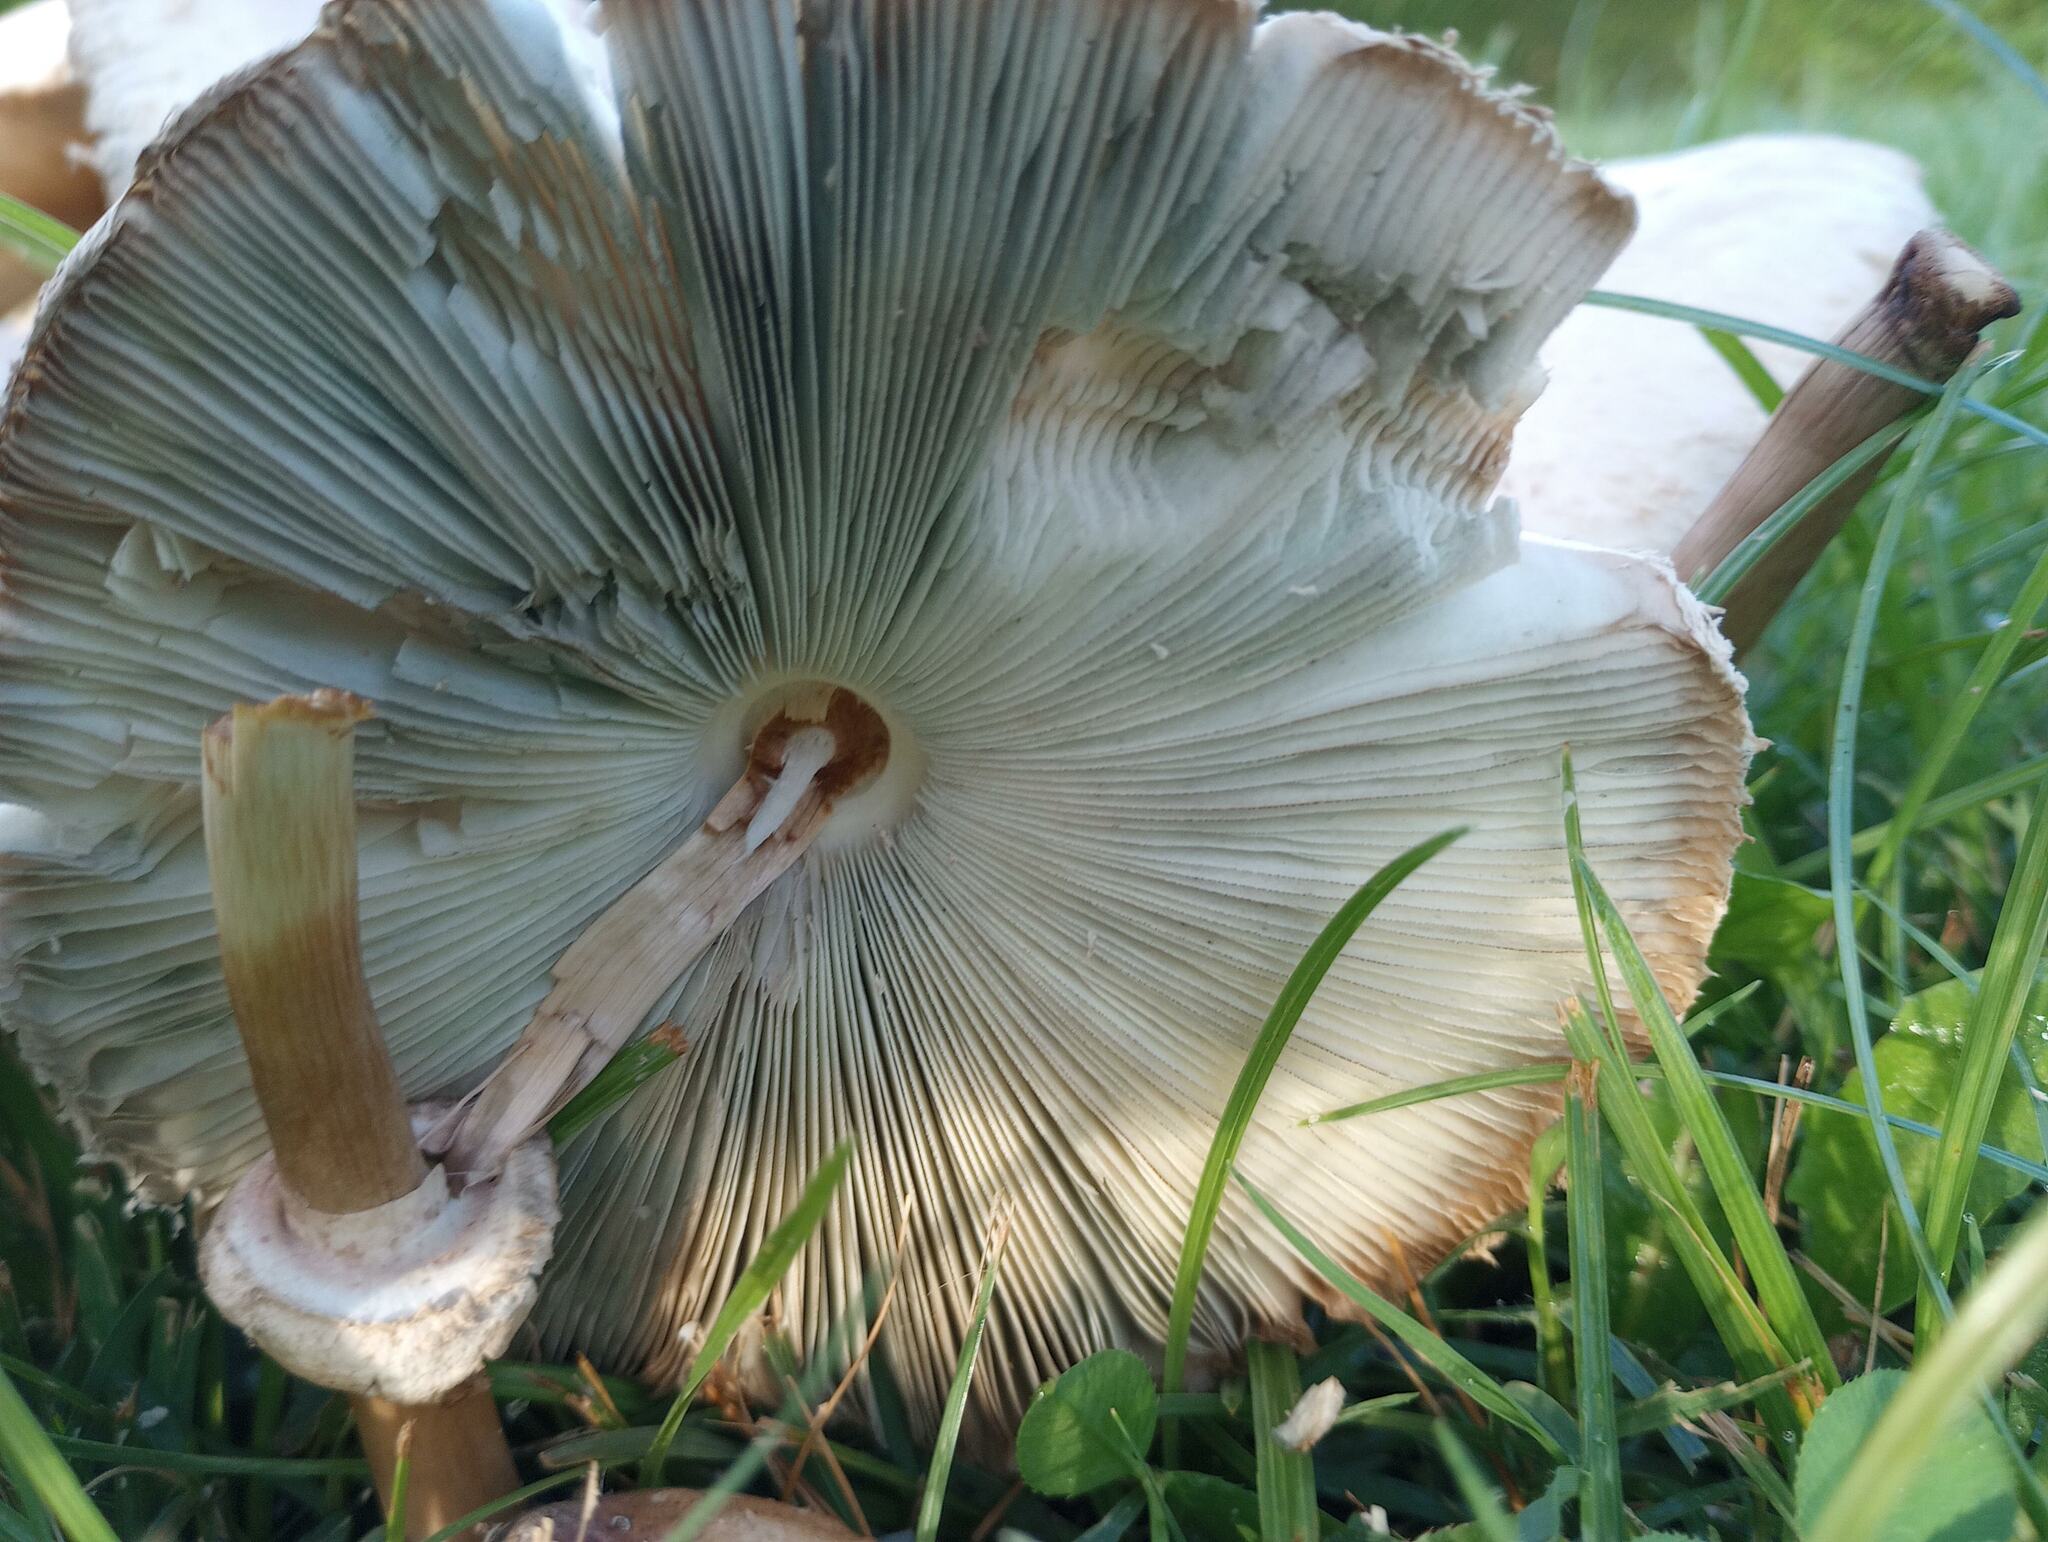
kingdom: Fungi
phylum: Basidiomycota
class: Agaricomycetes
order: Agaricales
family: Agaricaceae
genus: Chlorophyllum
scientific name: Chlorophyllum molybdites
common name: False parasol
